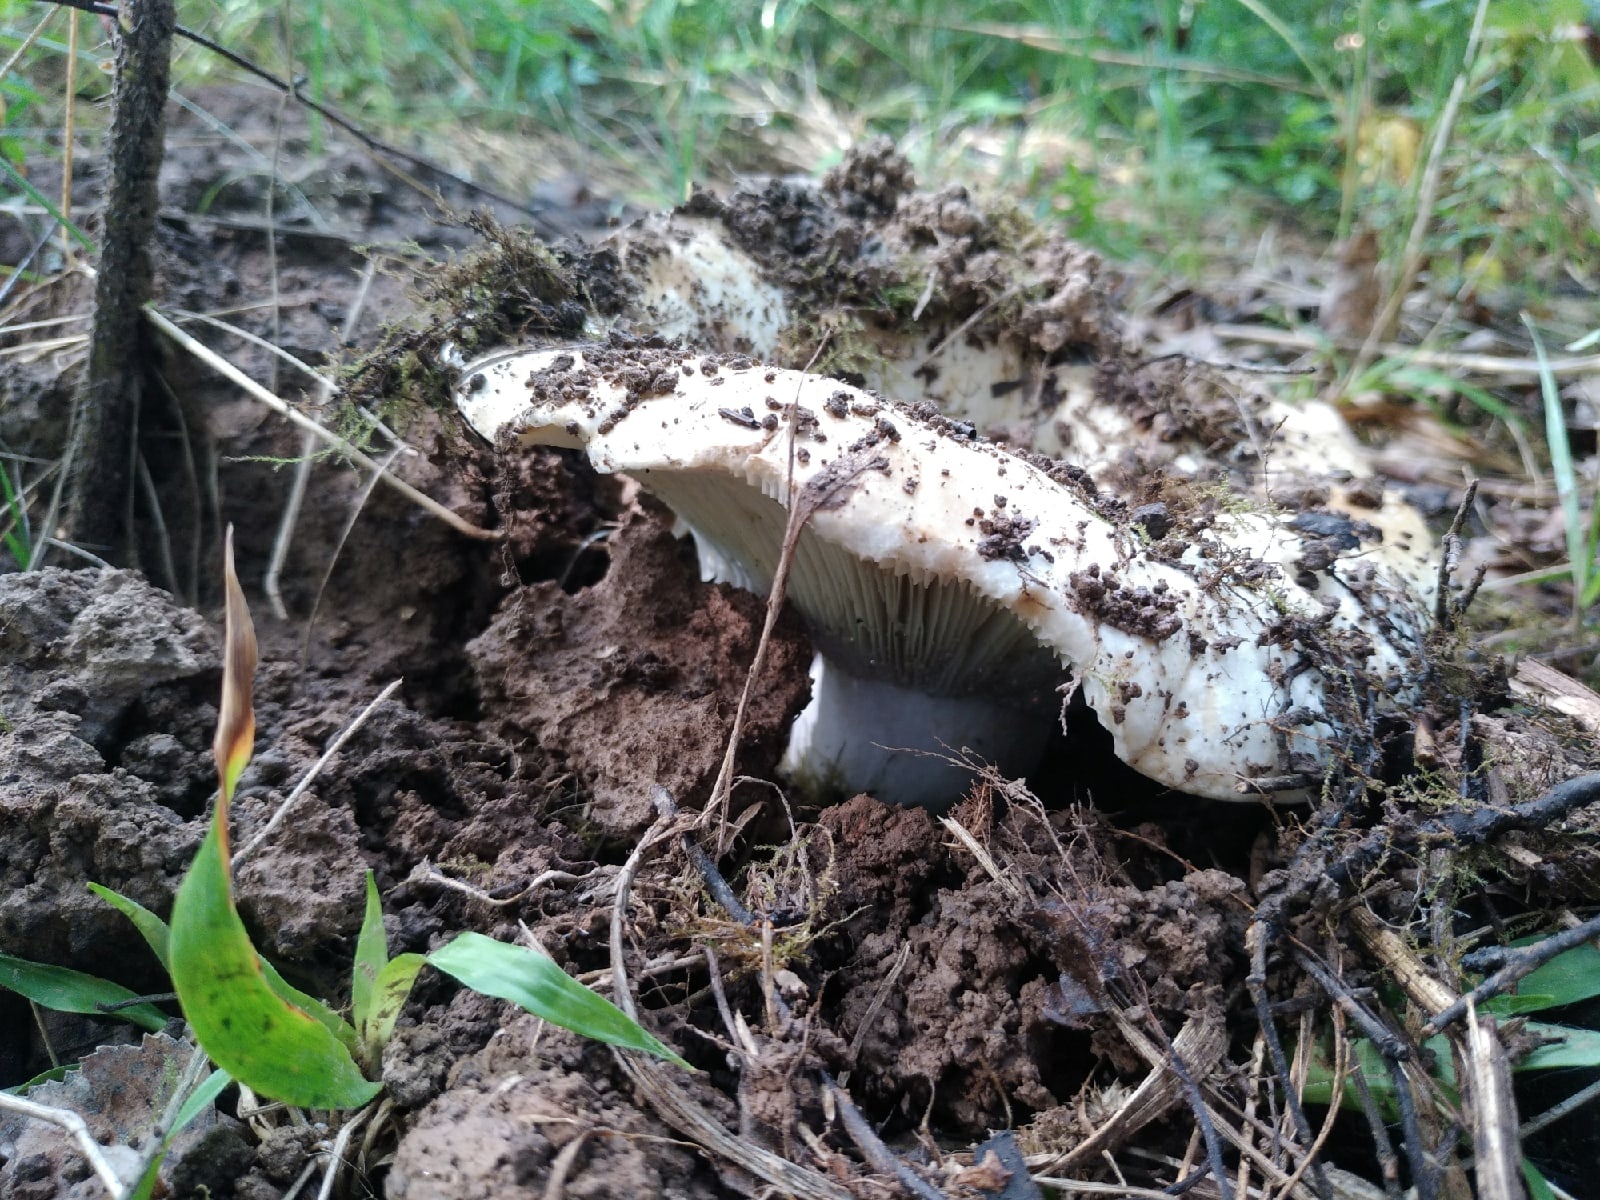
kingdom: Fungi
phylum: Basidiomycota
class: Agaricomycetes
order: Russulales
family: Russulaceae
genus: Russula
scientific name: Russula delica
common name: Milk white brittlegill
